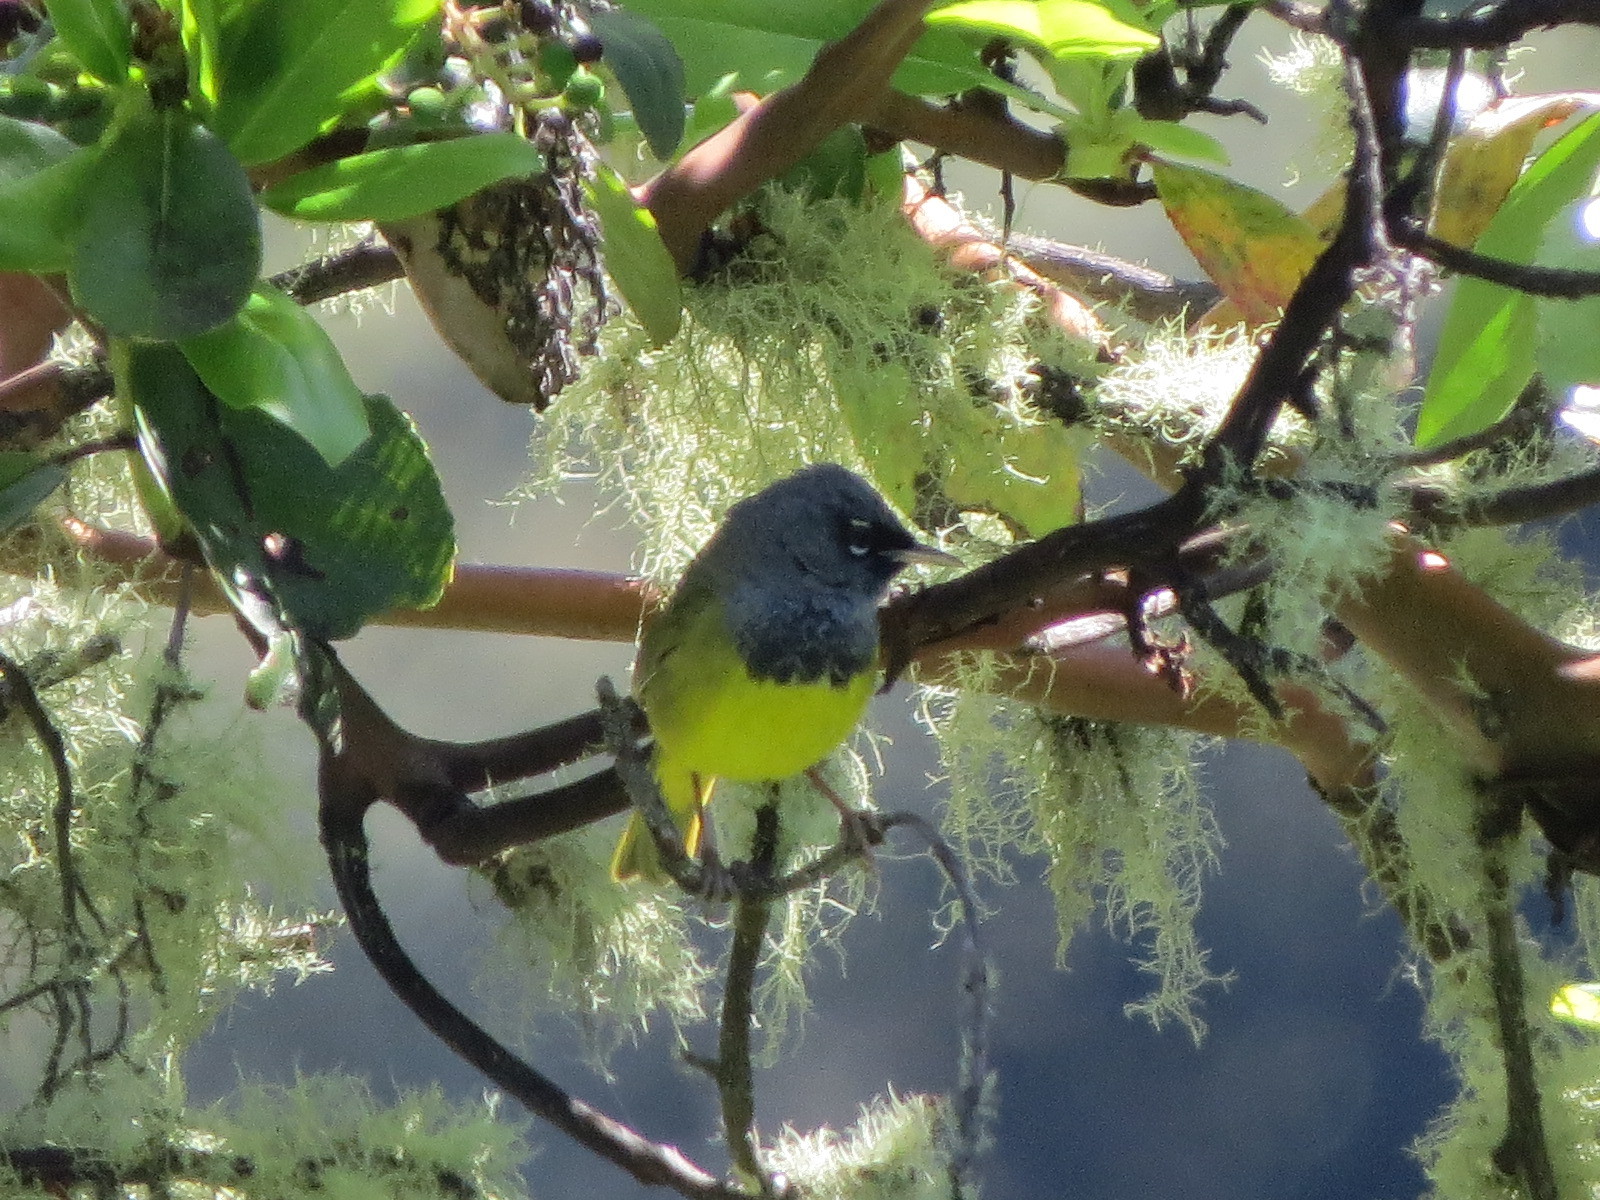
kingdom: Animalia
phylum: Chordata
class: Aves
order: Passeriformes
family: Parulidae
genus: Geothlypis
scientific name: Geothlypis tolmiei
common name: Macgillivray's warbler
